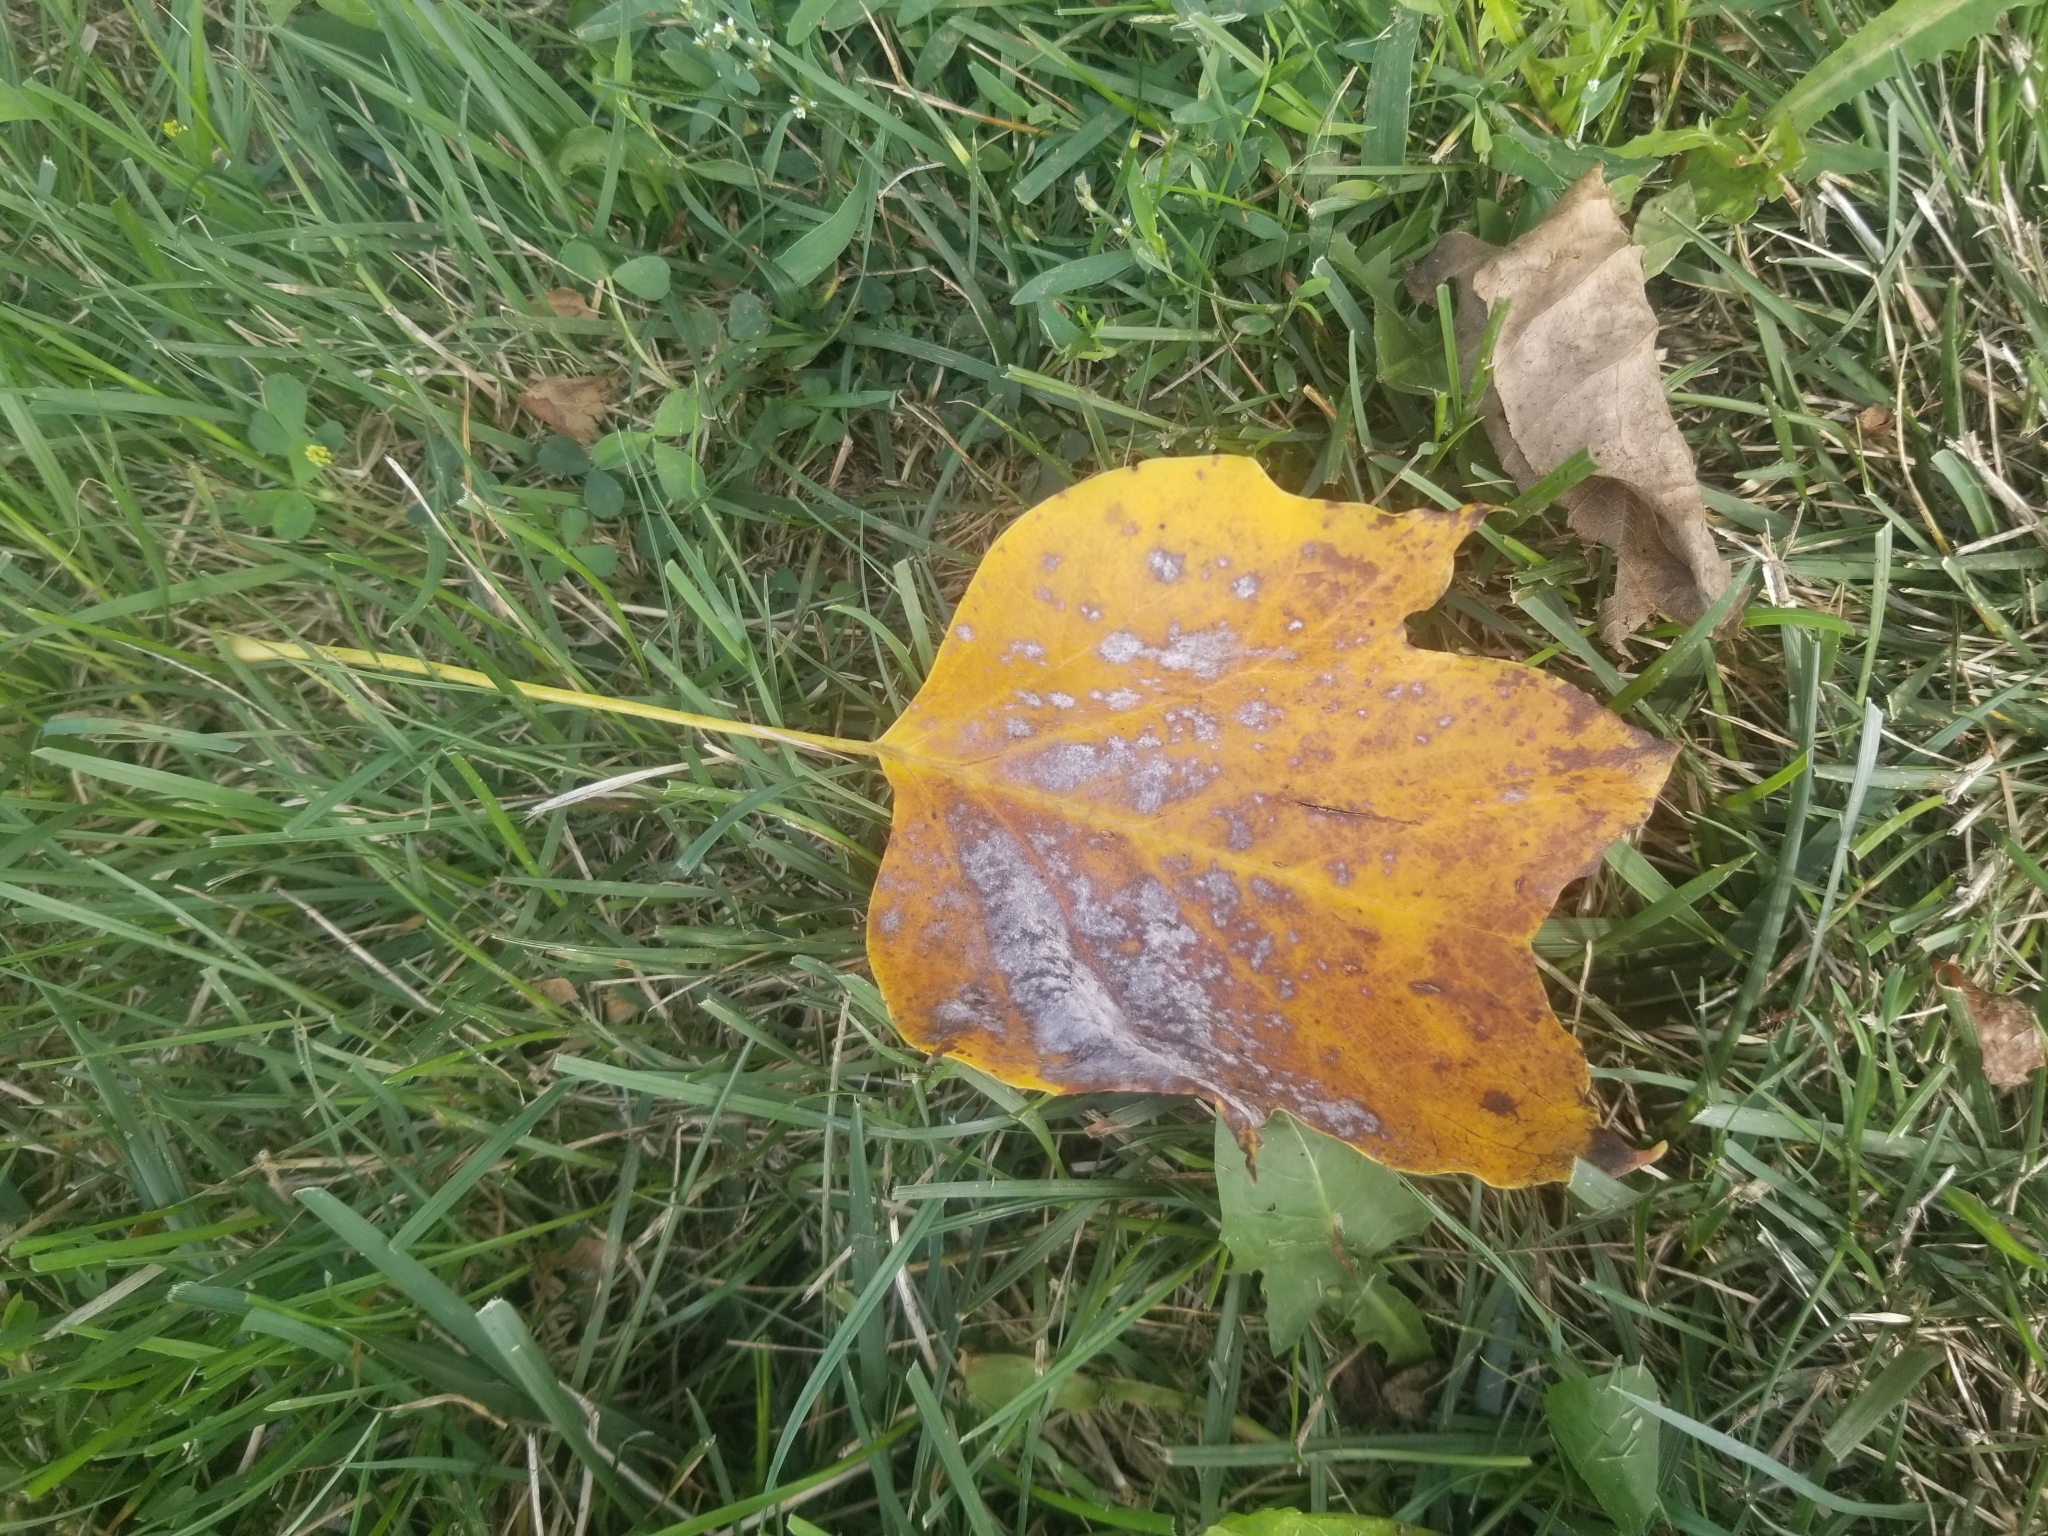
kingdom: Plantae
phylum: Tracheophyta
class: Magnoliopsida
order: Magnoliales
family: Magnoliaceae
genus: Liriodendron
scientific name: Liriodendron tulipifera
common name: Tulip tree
